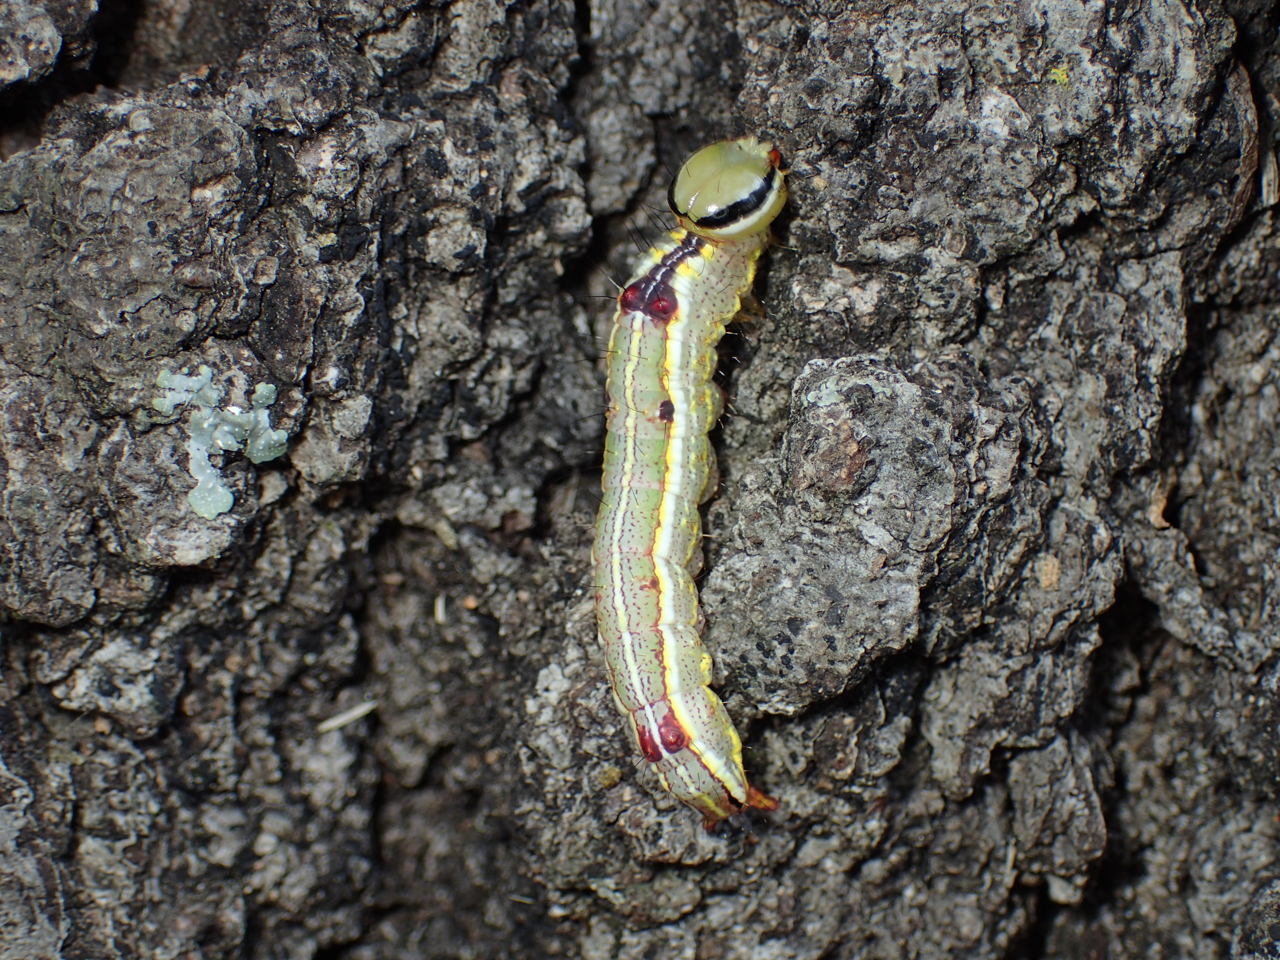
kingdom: Animalia
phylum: Arthropoda
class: Insecta
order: Lepidoptera
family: Notodontidae
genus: Lochmaeus
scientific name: Lochmaeus manteo
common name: Variable oakleaf caterpillar moth
